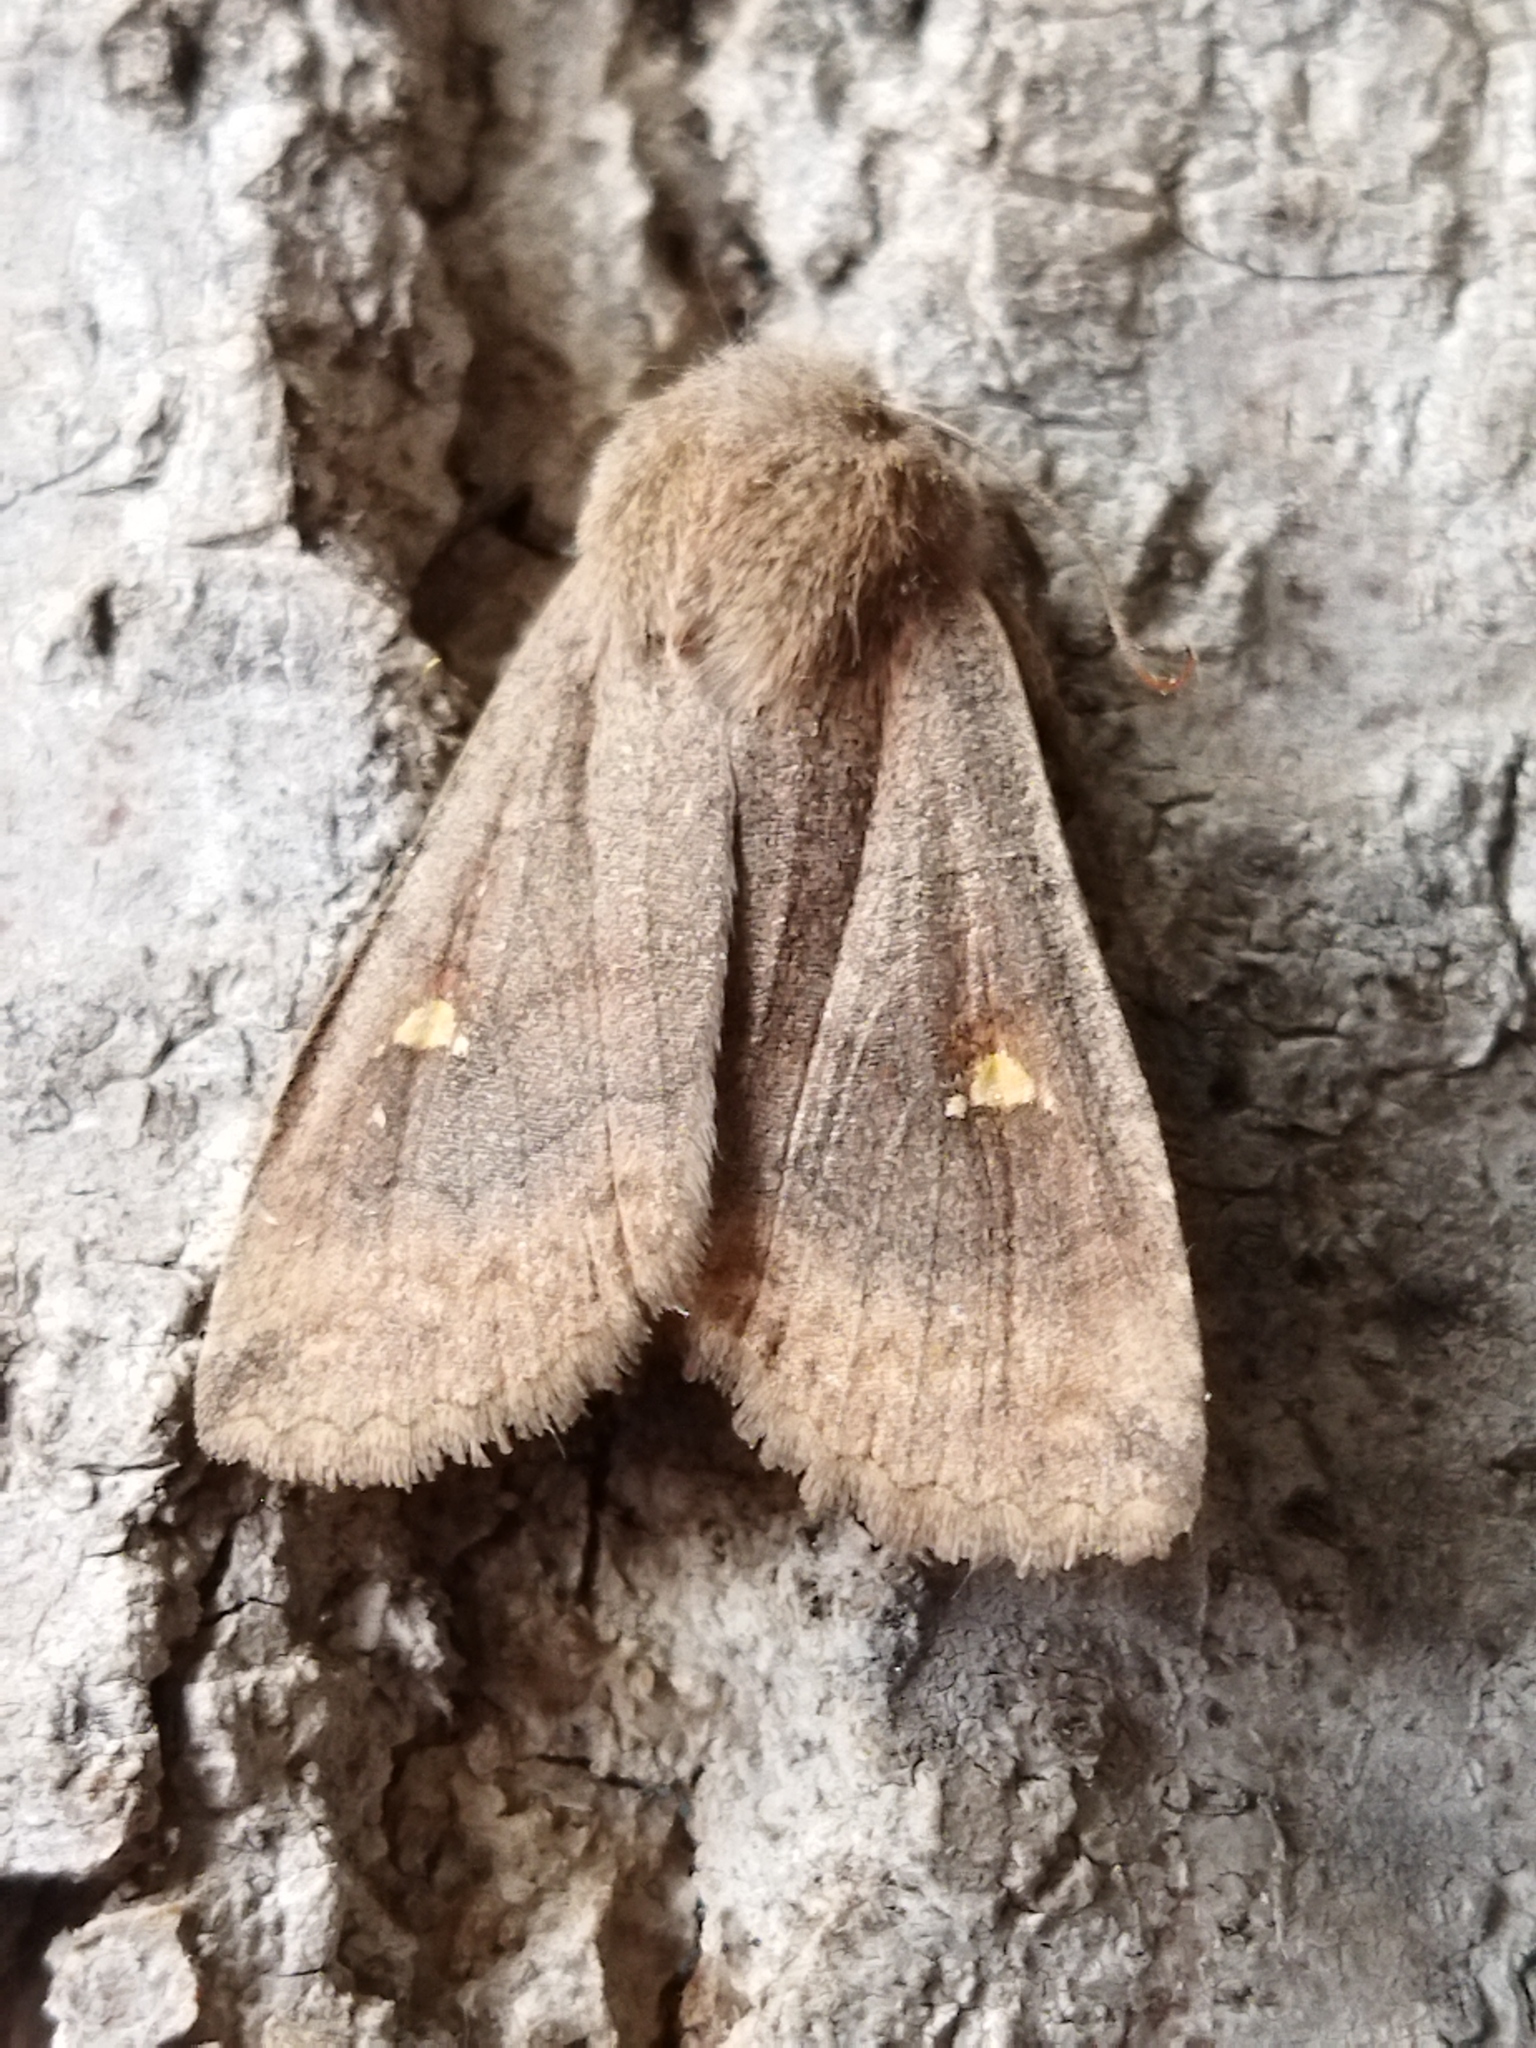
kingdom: Animalia
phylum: Arthropoda
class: Insecta
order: Lepidoptera
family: Noctuidae
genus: Eupsilia
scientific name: Eupsilia transversa
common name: Satellite
